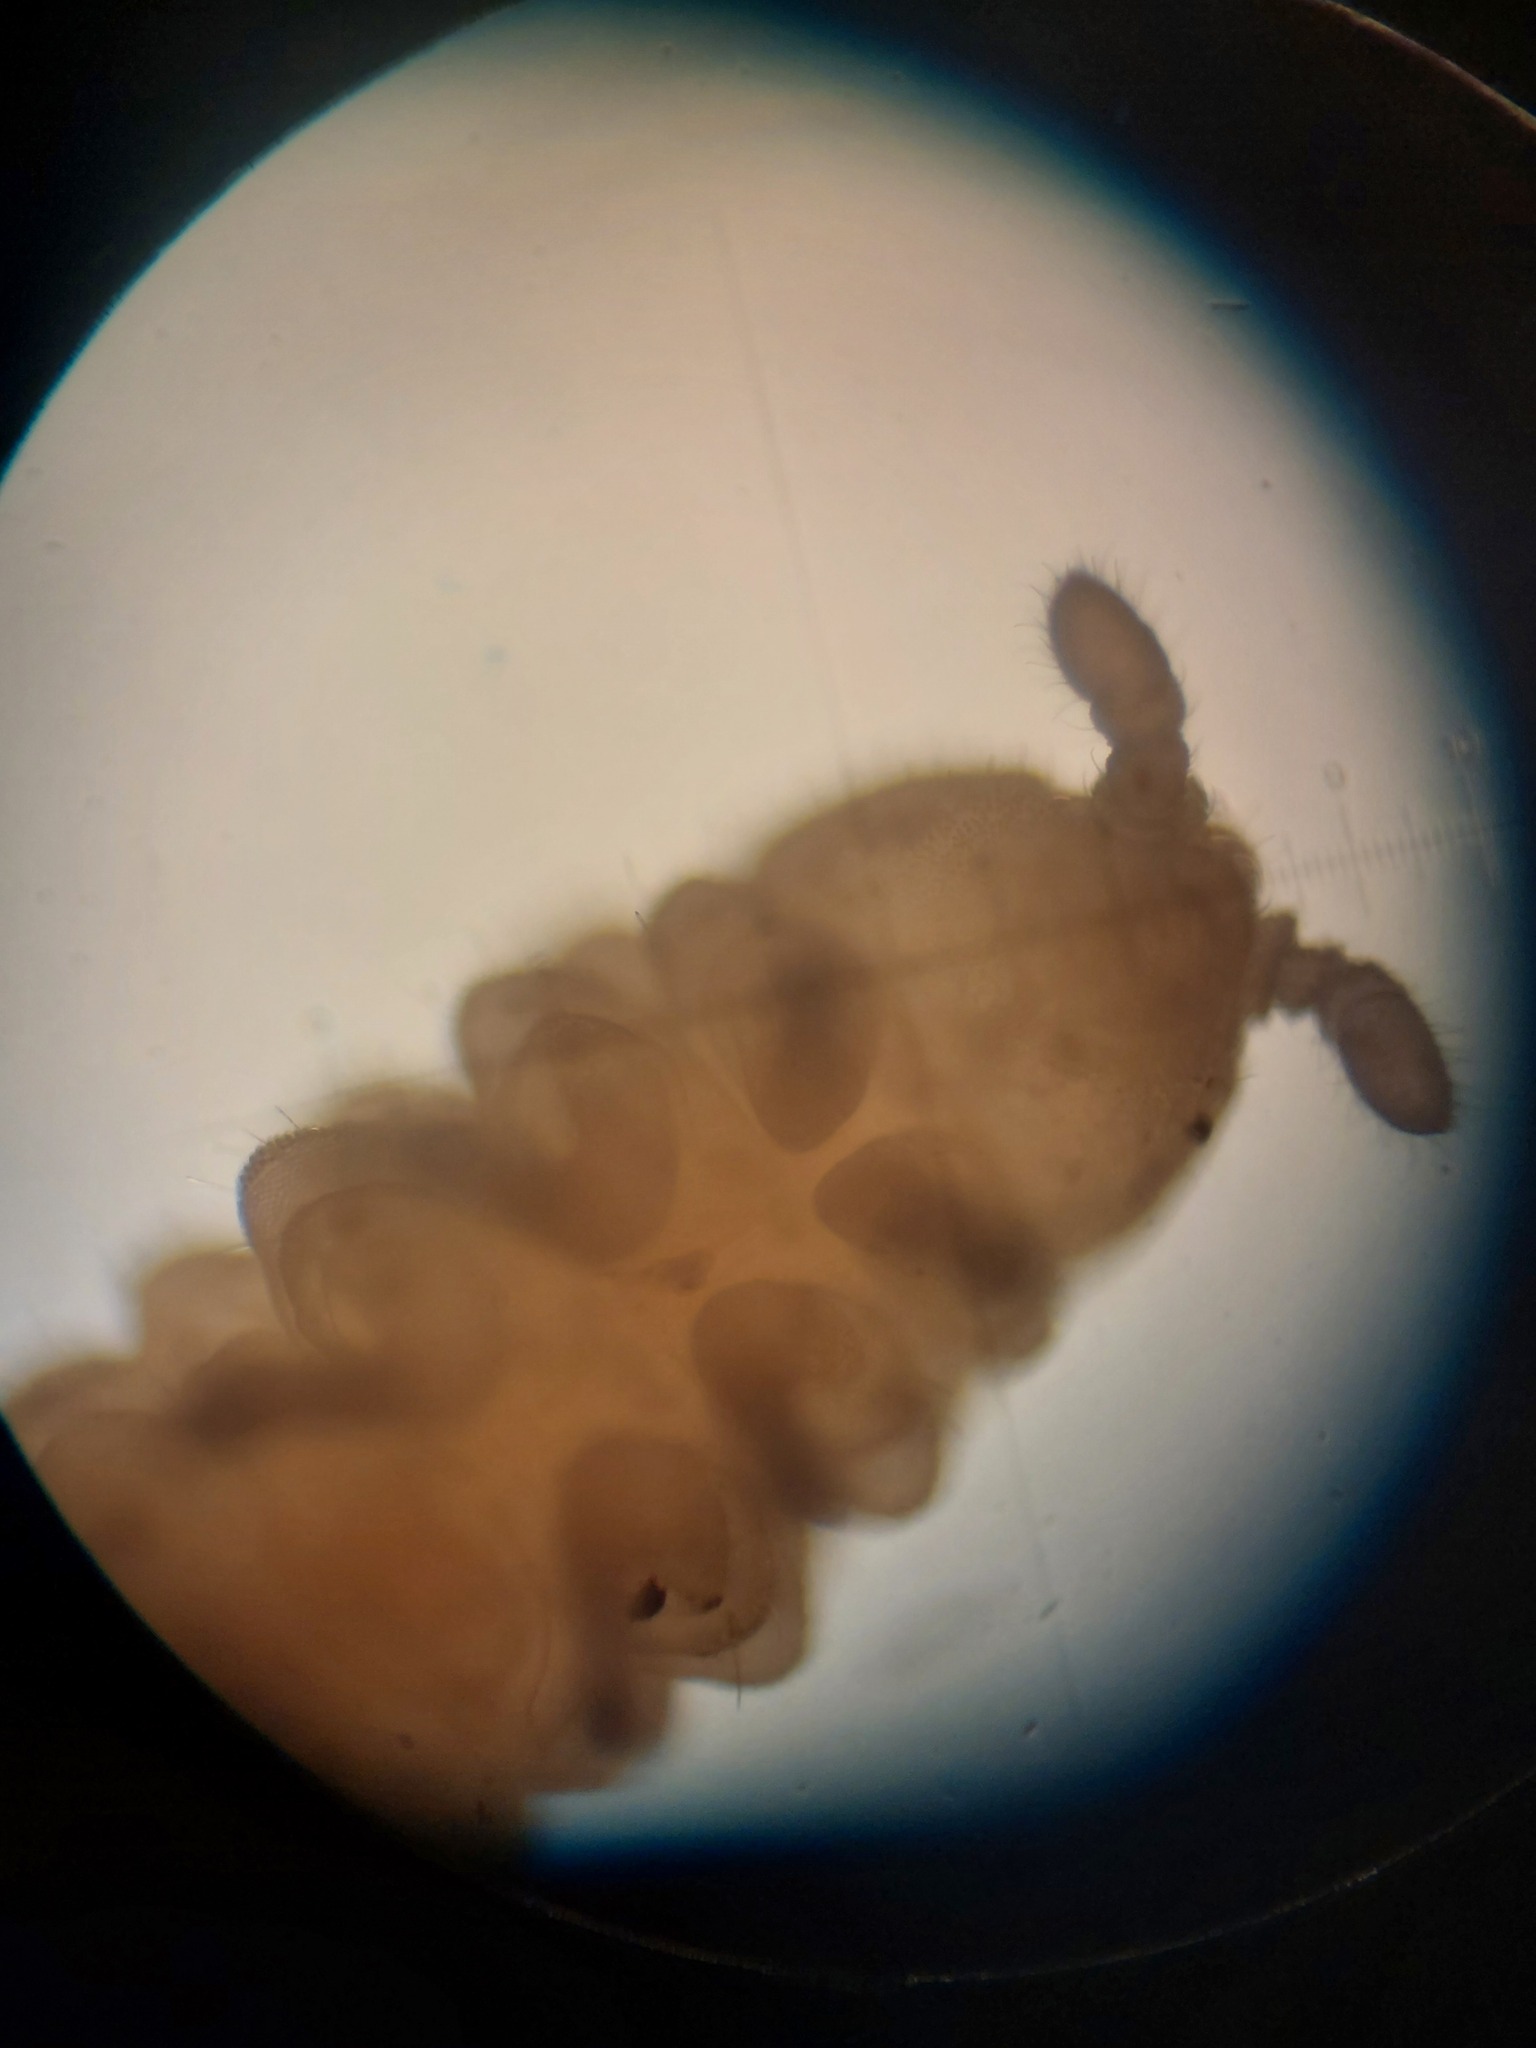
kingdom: Animalia
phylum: Arthropoda
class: Collembola
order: Poduromorpha
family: Onychiuridae
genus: Kalaphorura
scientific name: Kalaphorura burmeisteri
